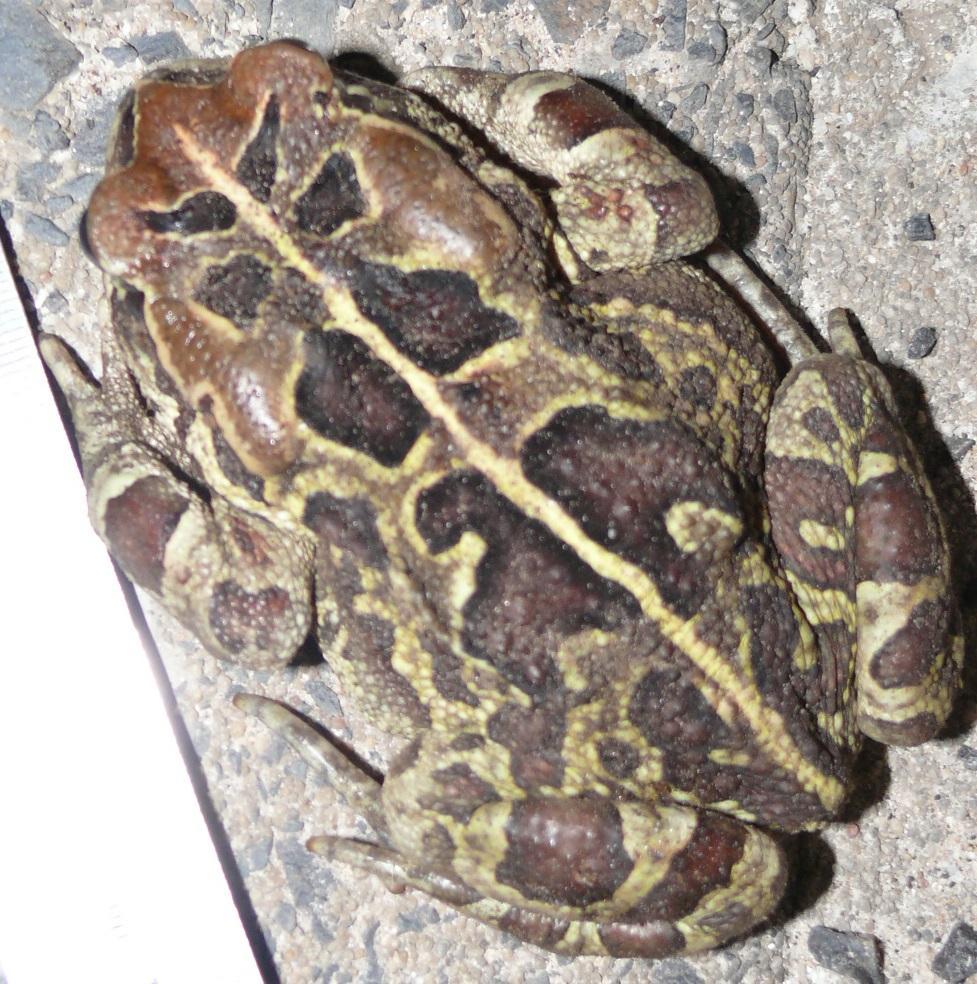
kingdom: Animalia
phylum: Chordata
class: Amphibia
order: Anura
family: Bufonidae
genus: Sclerophrys
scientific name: Sclerophrys pantherina
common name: Panther toad
